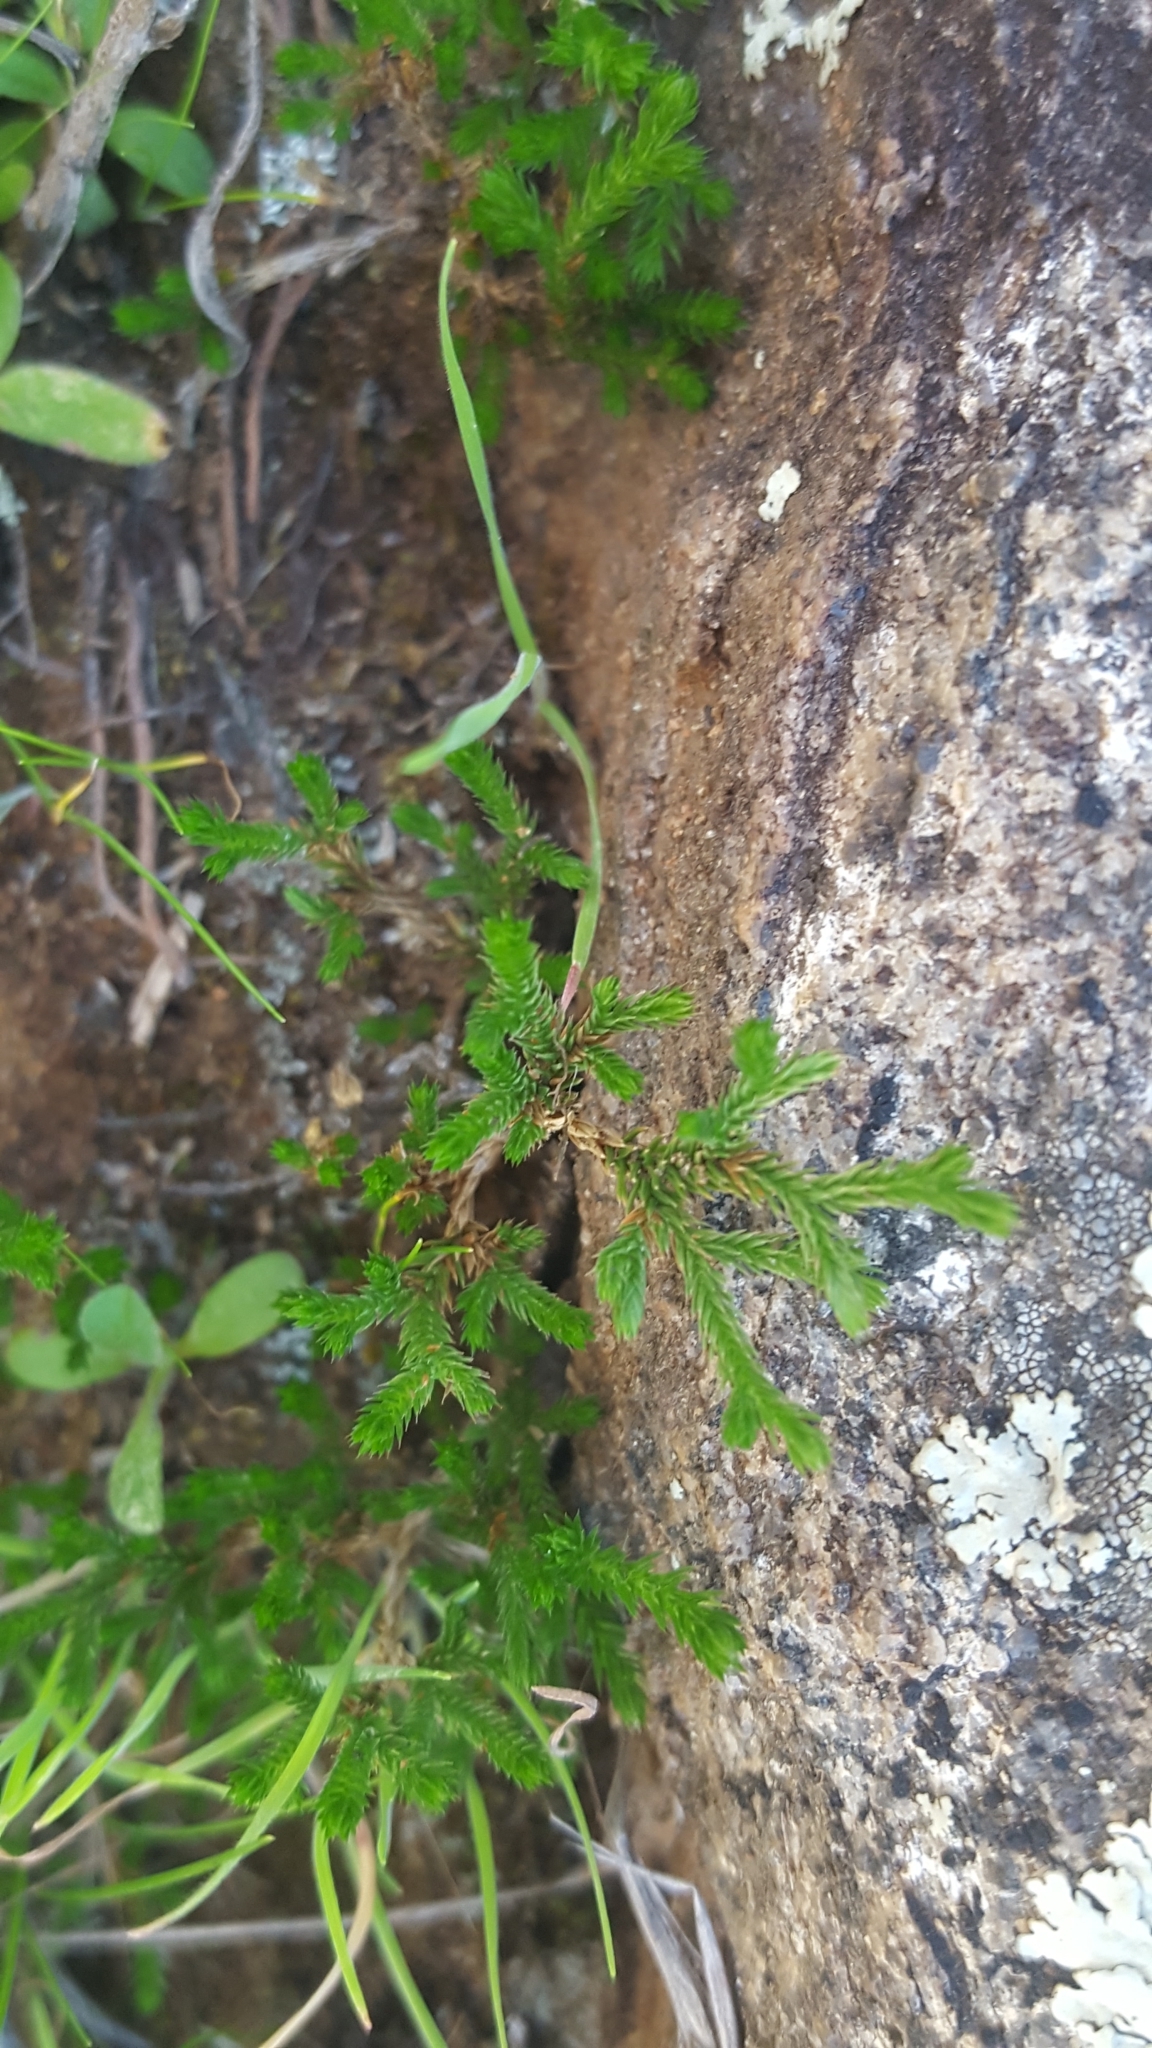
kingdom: Plantae
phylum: Tracheophyta
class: Lycopodiopsida
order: Selaginellales
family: Selaginellaceae
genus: Selaginella
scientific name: Selaginella bigelovii
